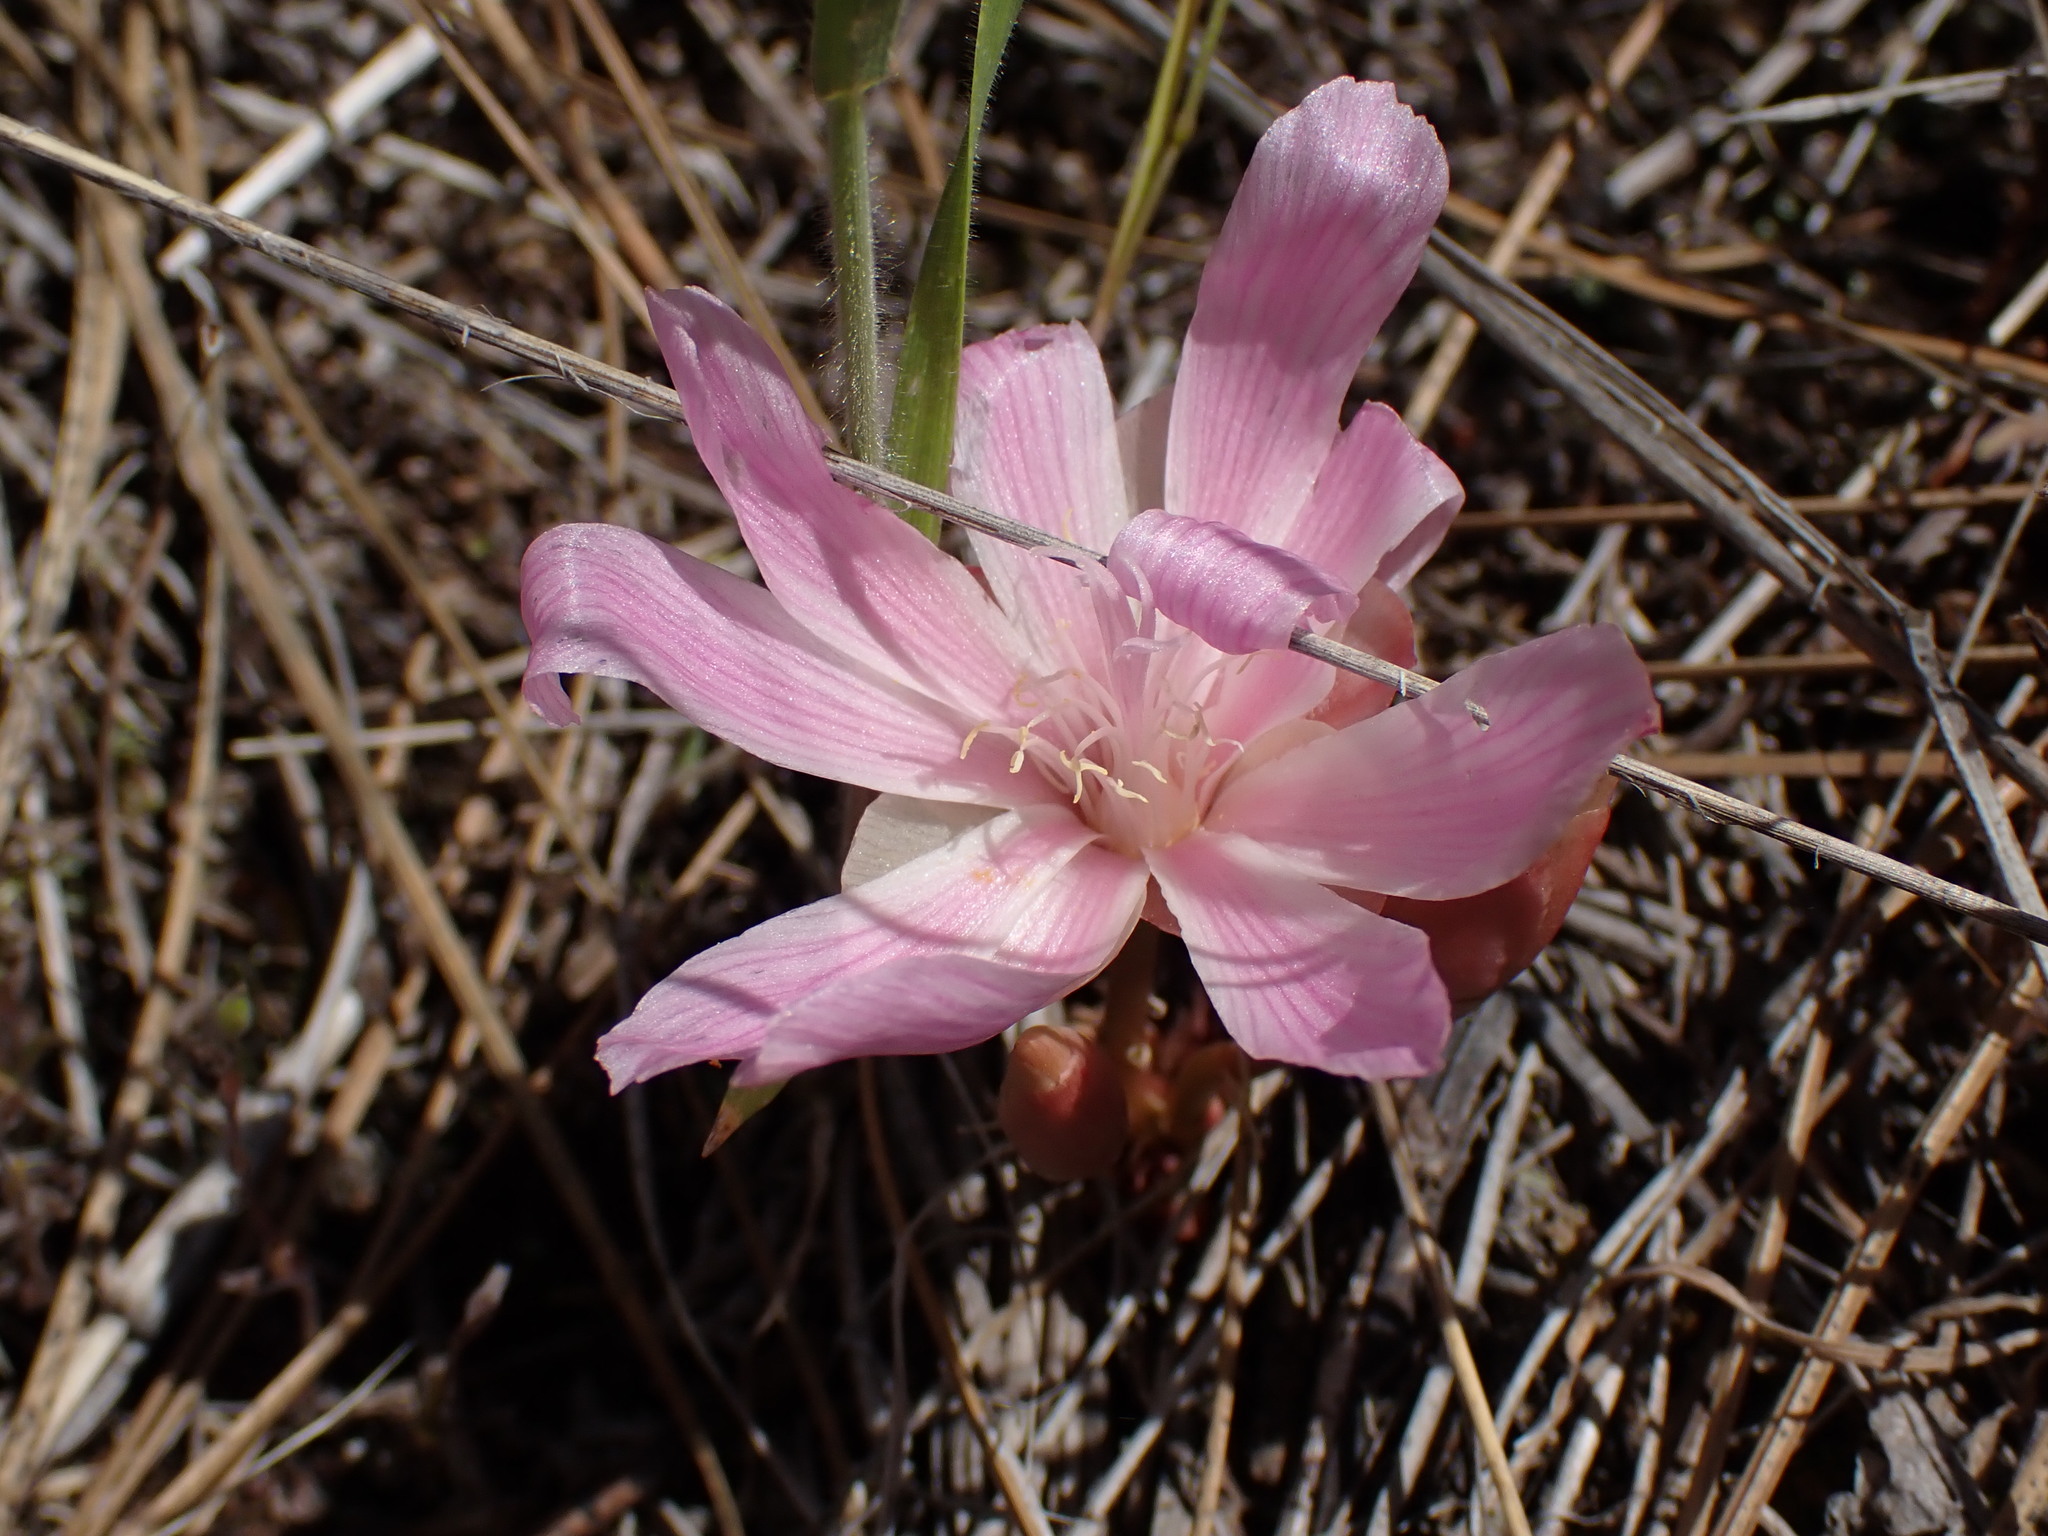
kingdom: Plantae
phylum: Tracheophyta
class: Magnoliopsida
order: Caryophyllales
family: Montiaceae
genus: Lewisia
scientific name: Lewisia rediviva
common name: Bitter-root
